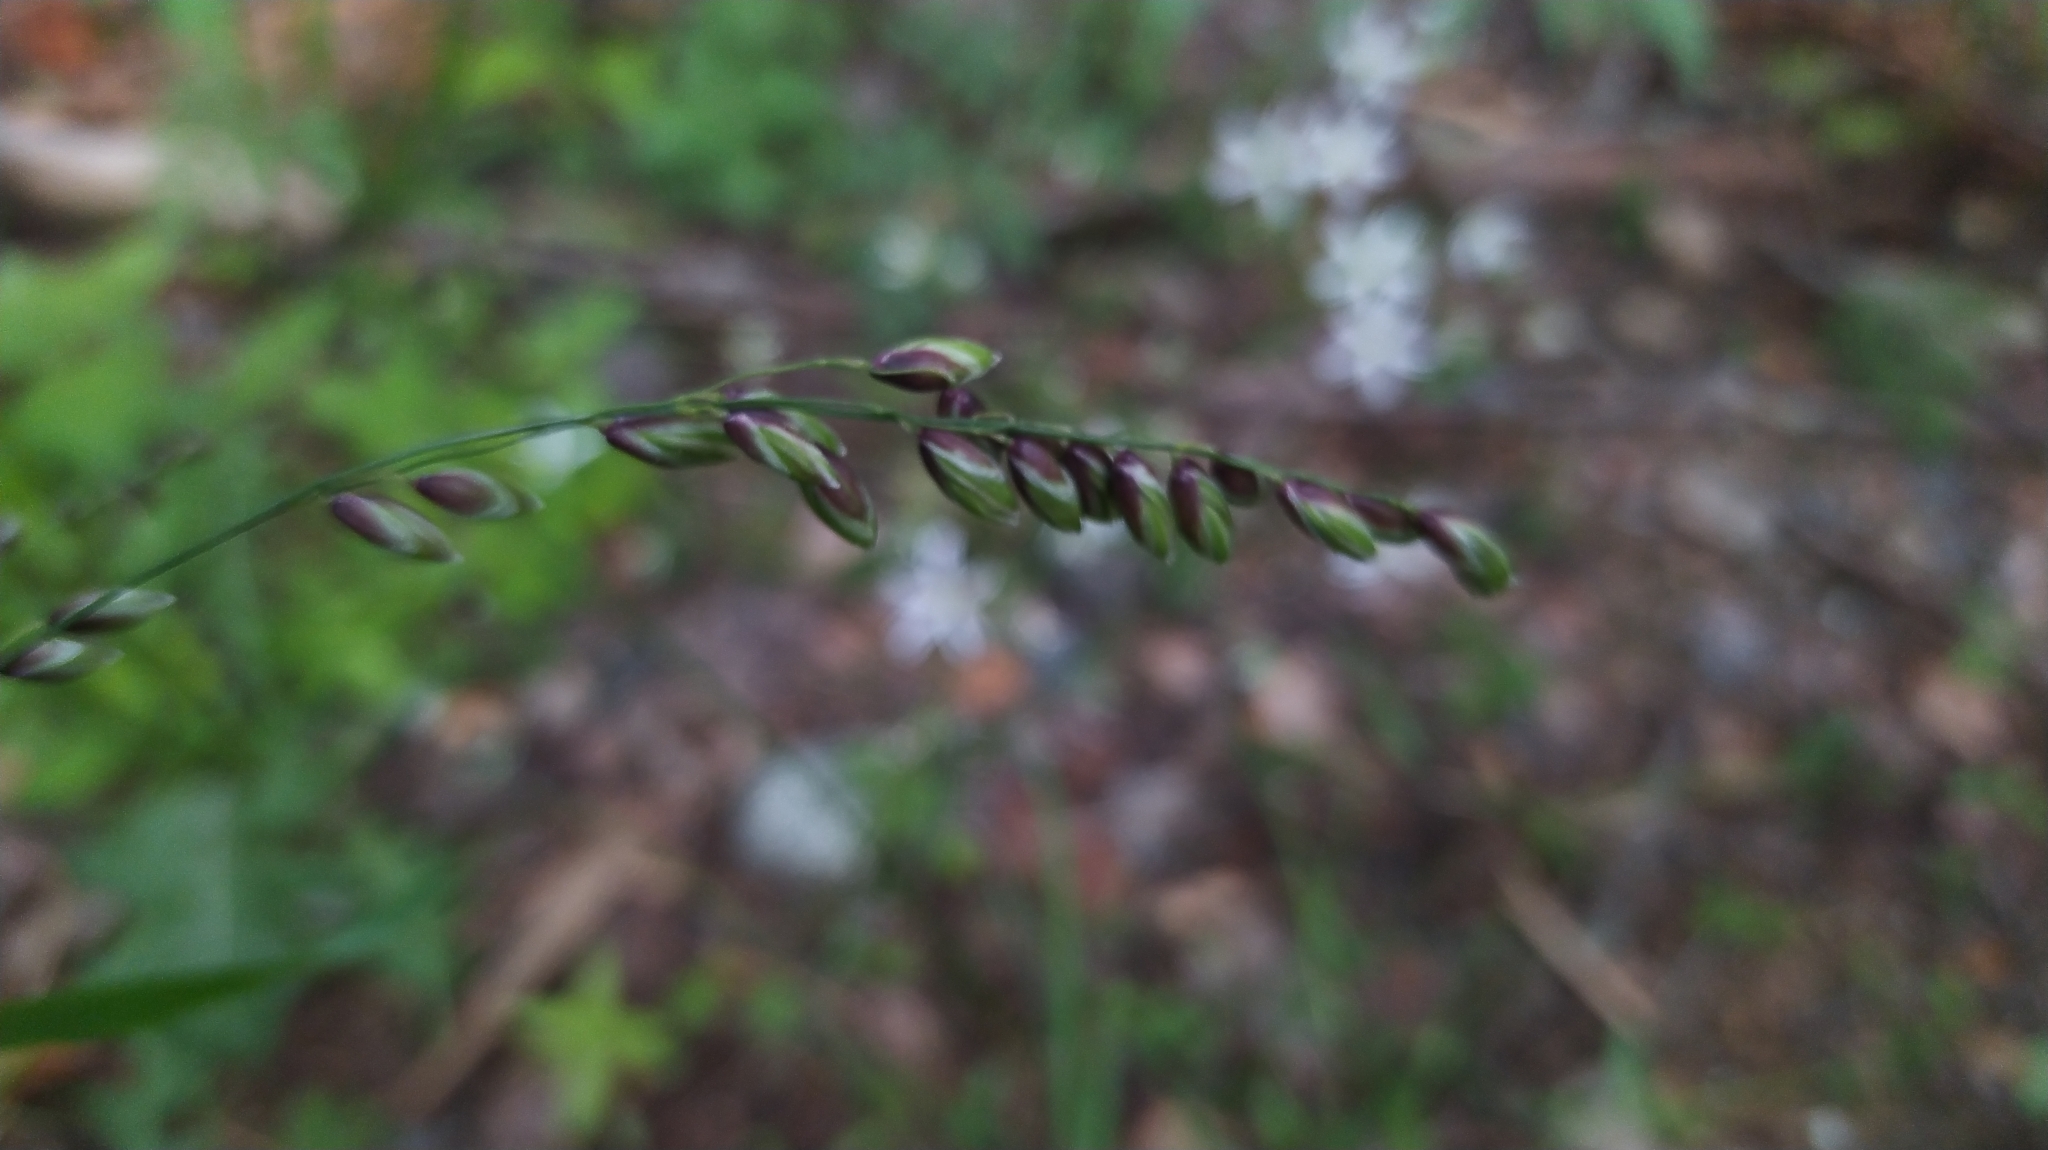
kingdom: Plantae
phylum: Tracheophyta
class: Liliopsida
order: Poales
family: Poaceae
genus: Melica
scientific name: Melica nutans
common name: Mountain melick
